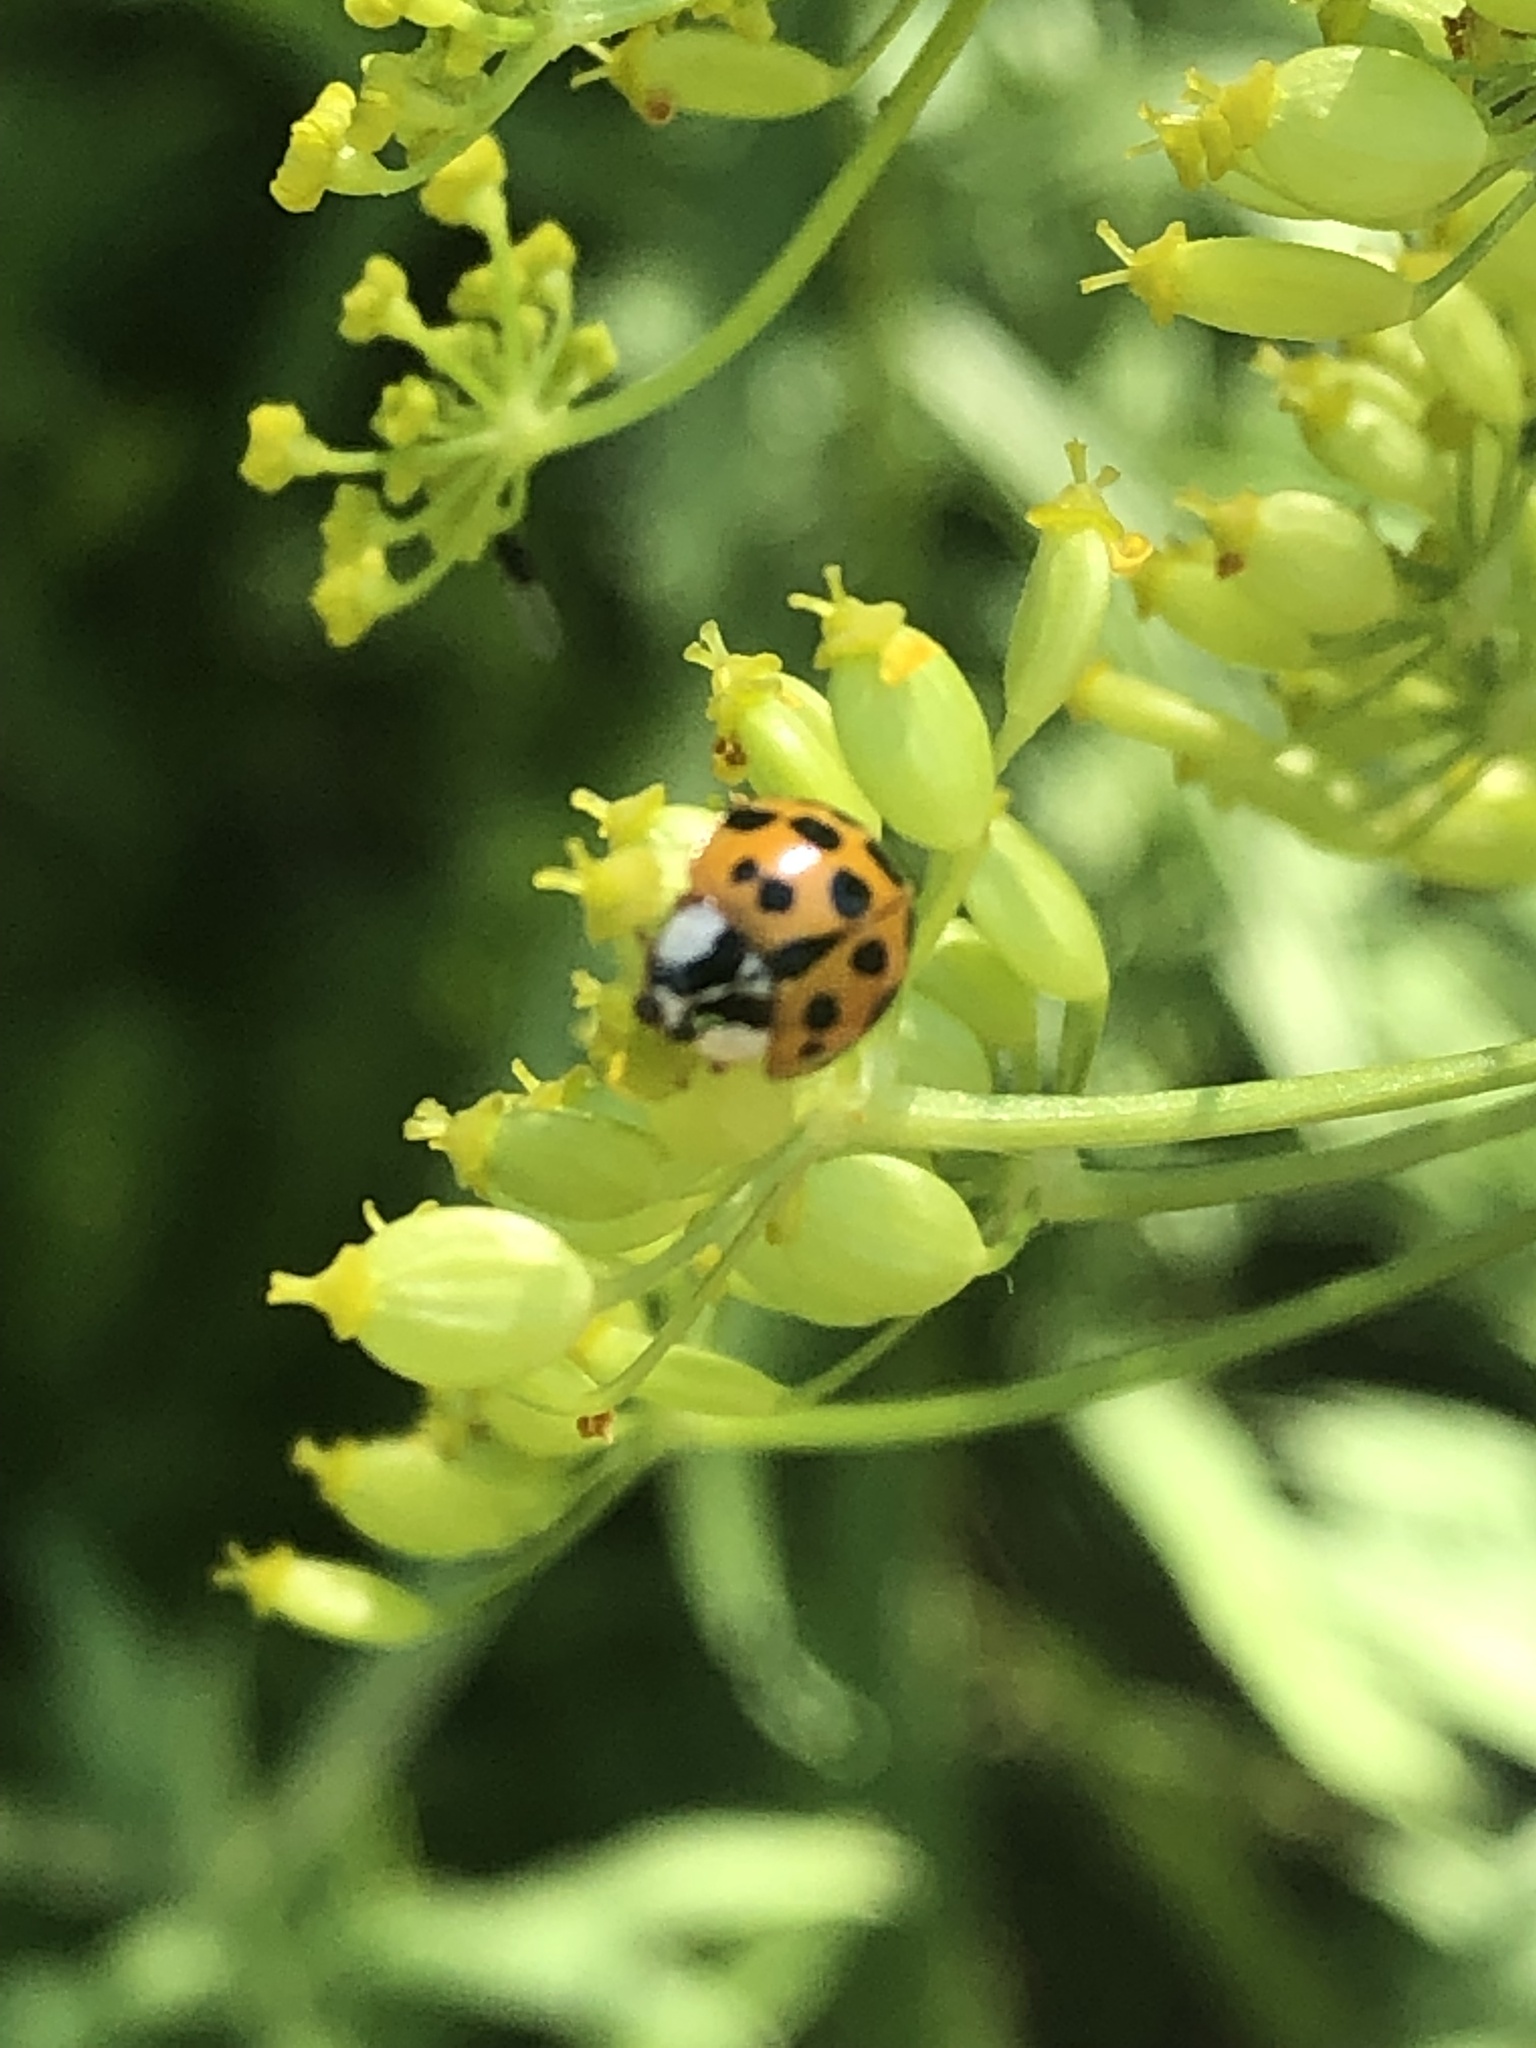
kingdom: Animalia
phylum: Arthropoda
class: Insecta
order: Coleoptera
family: Coccinellidae
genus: Harmonia
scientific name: Harmonia axyridis
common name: Harlequin ladybird
